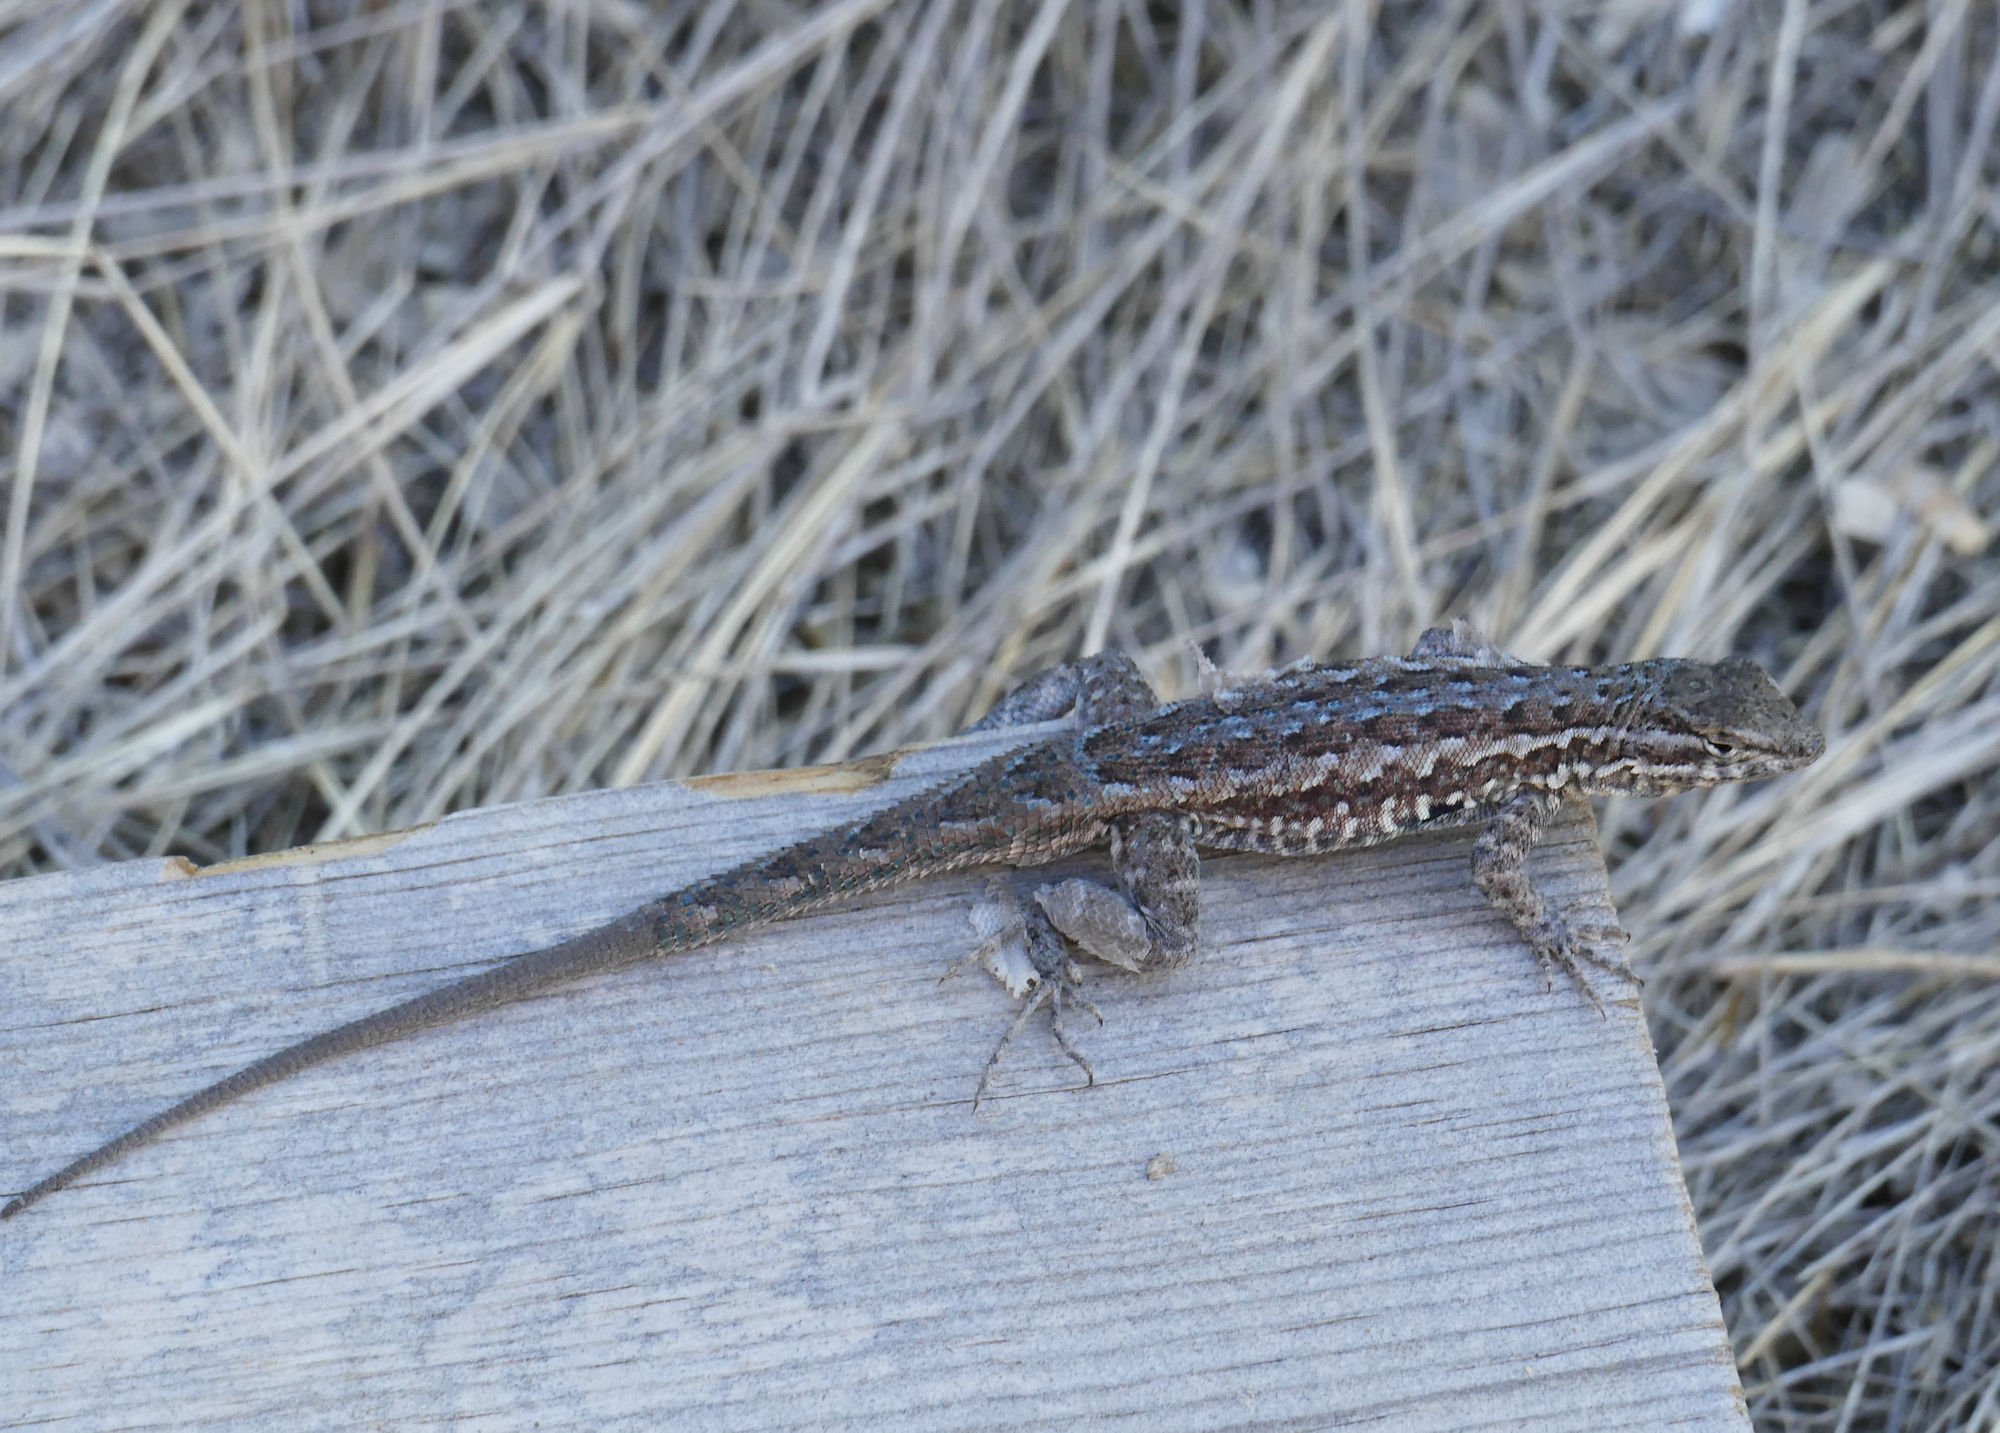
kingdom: Animalia
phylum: Chordata
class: Squamata
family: Phrynosomatidae
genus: Uta
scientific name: Uta stansburiana
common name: Side-blotched lizard
